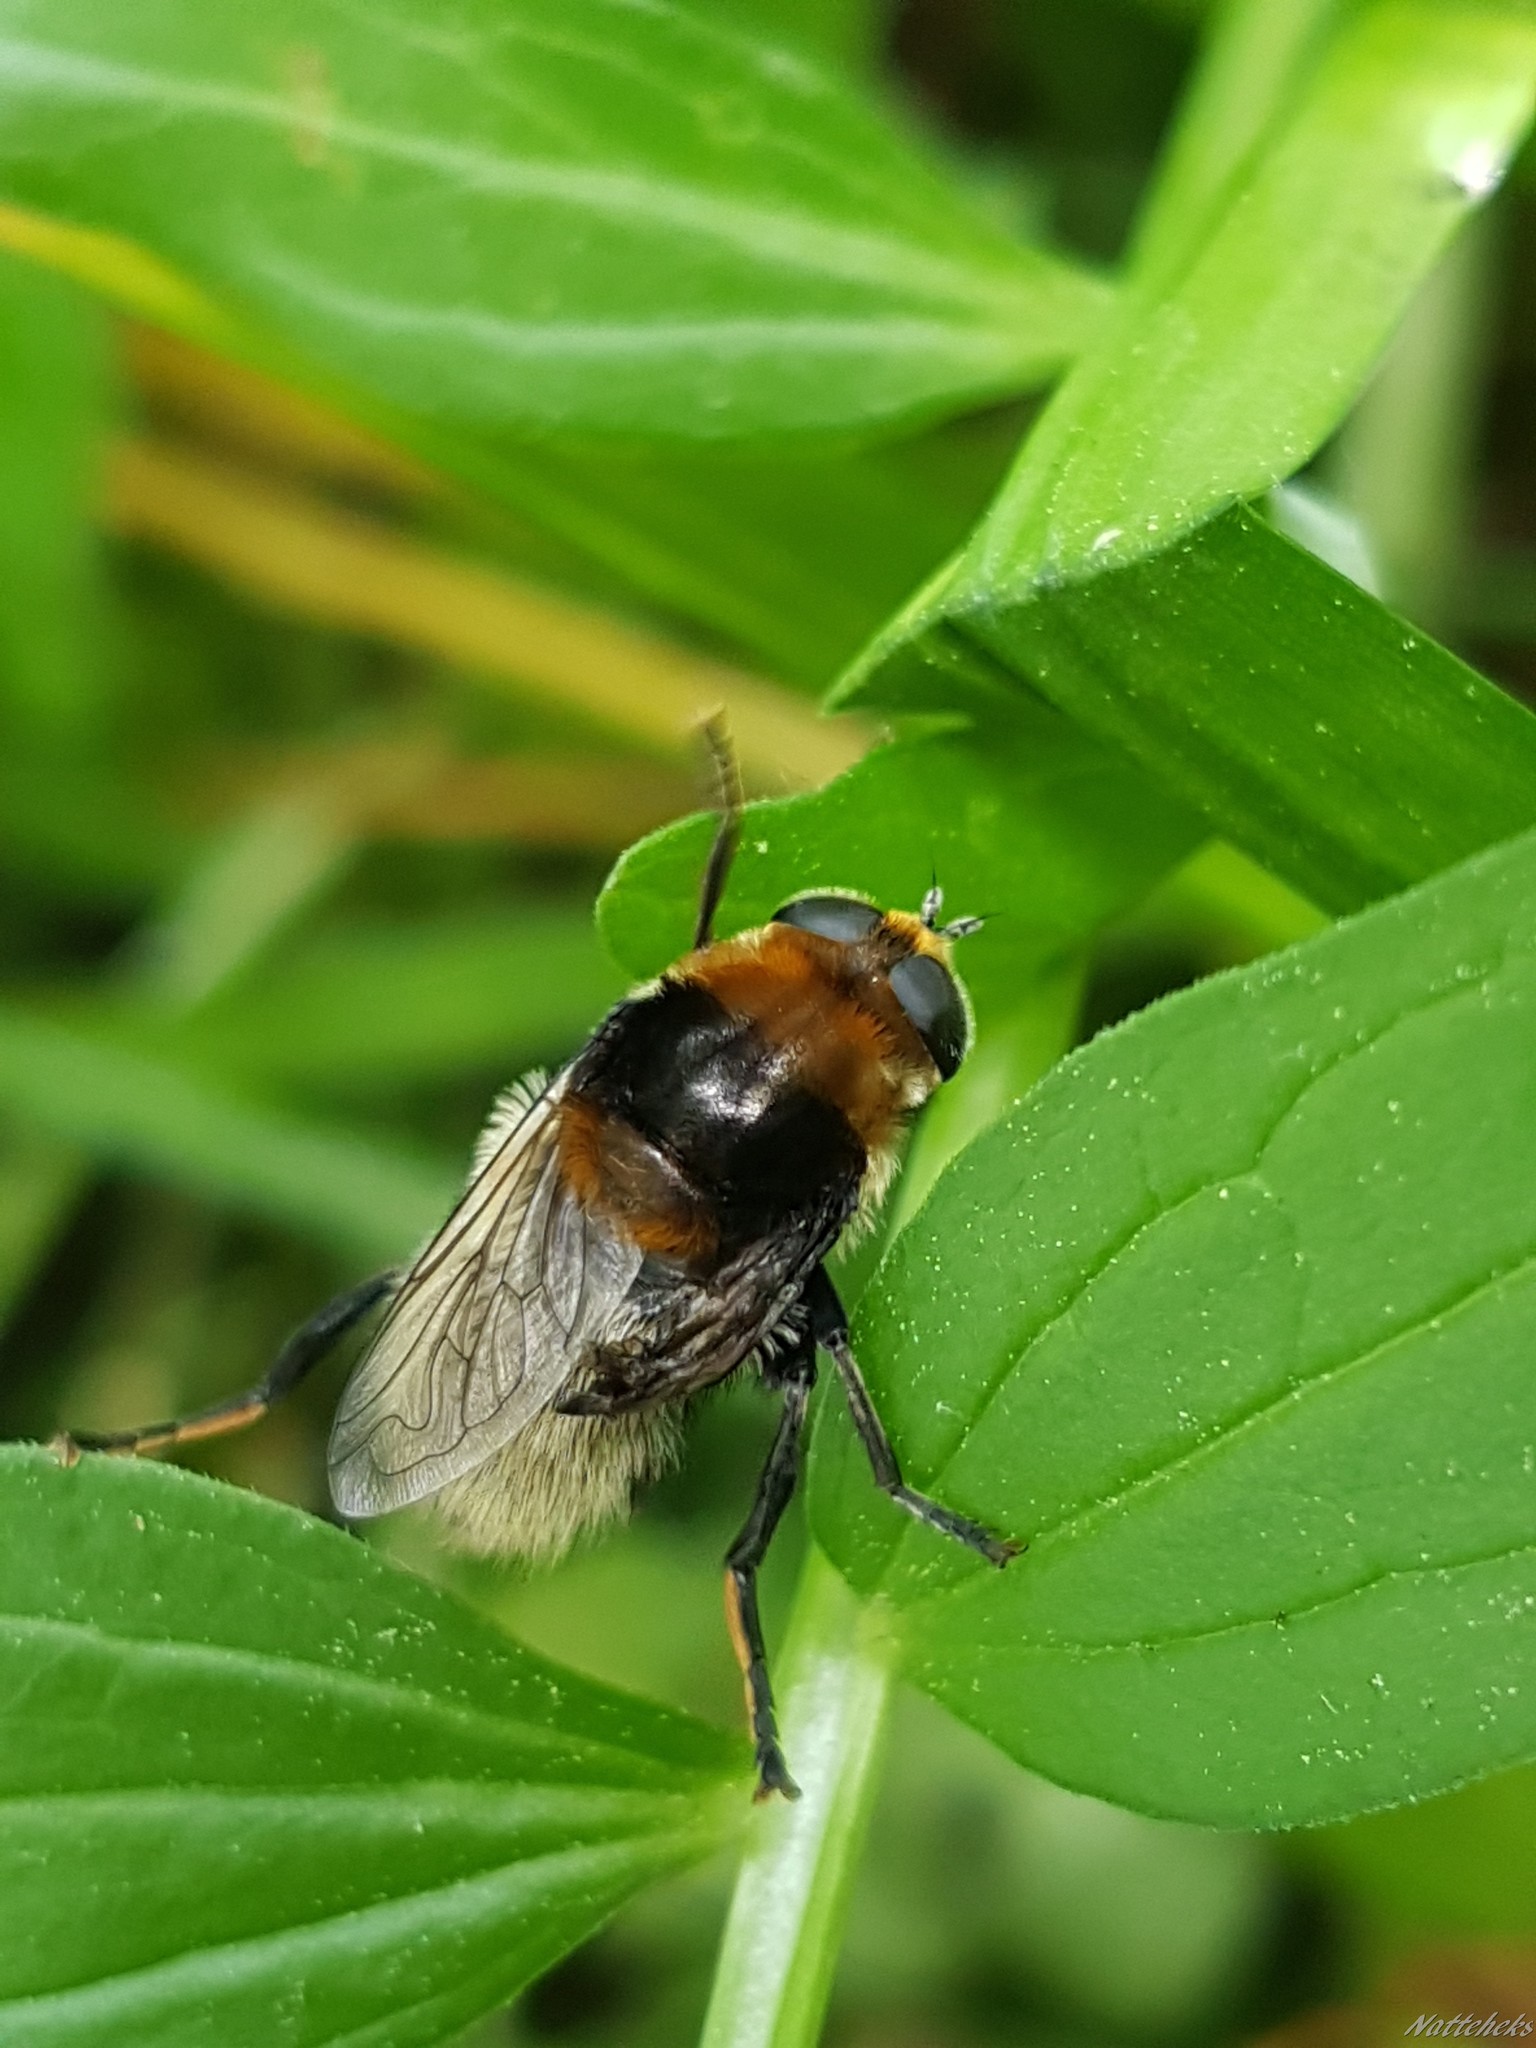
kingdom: Animalia
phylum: Arthropoda
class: Insecta
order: Diptera
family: Syrphidae
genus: Merodon
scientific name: Merodon equestris
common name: Greater bulb-fly
